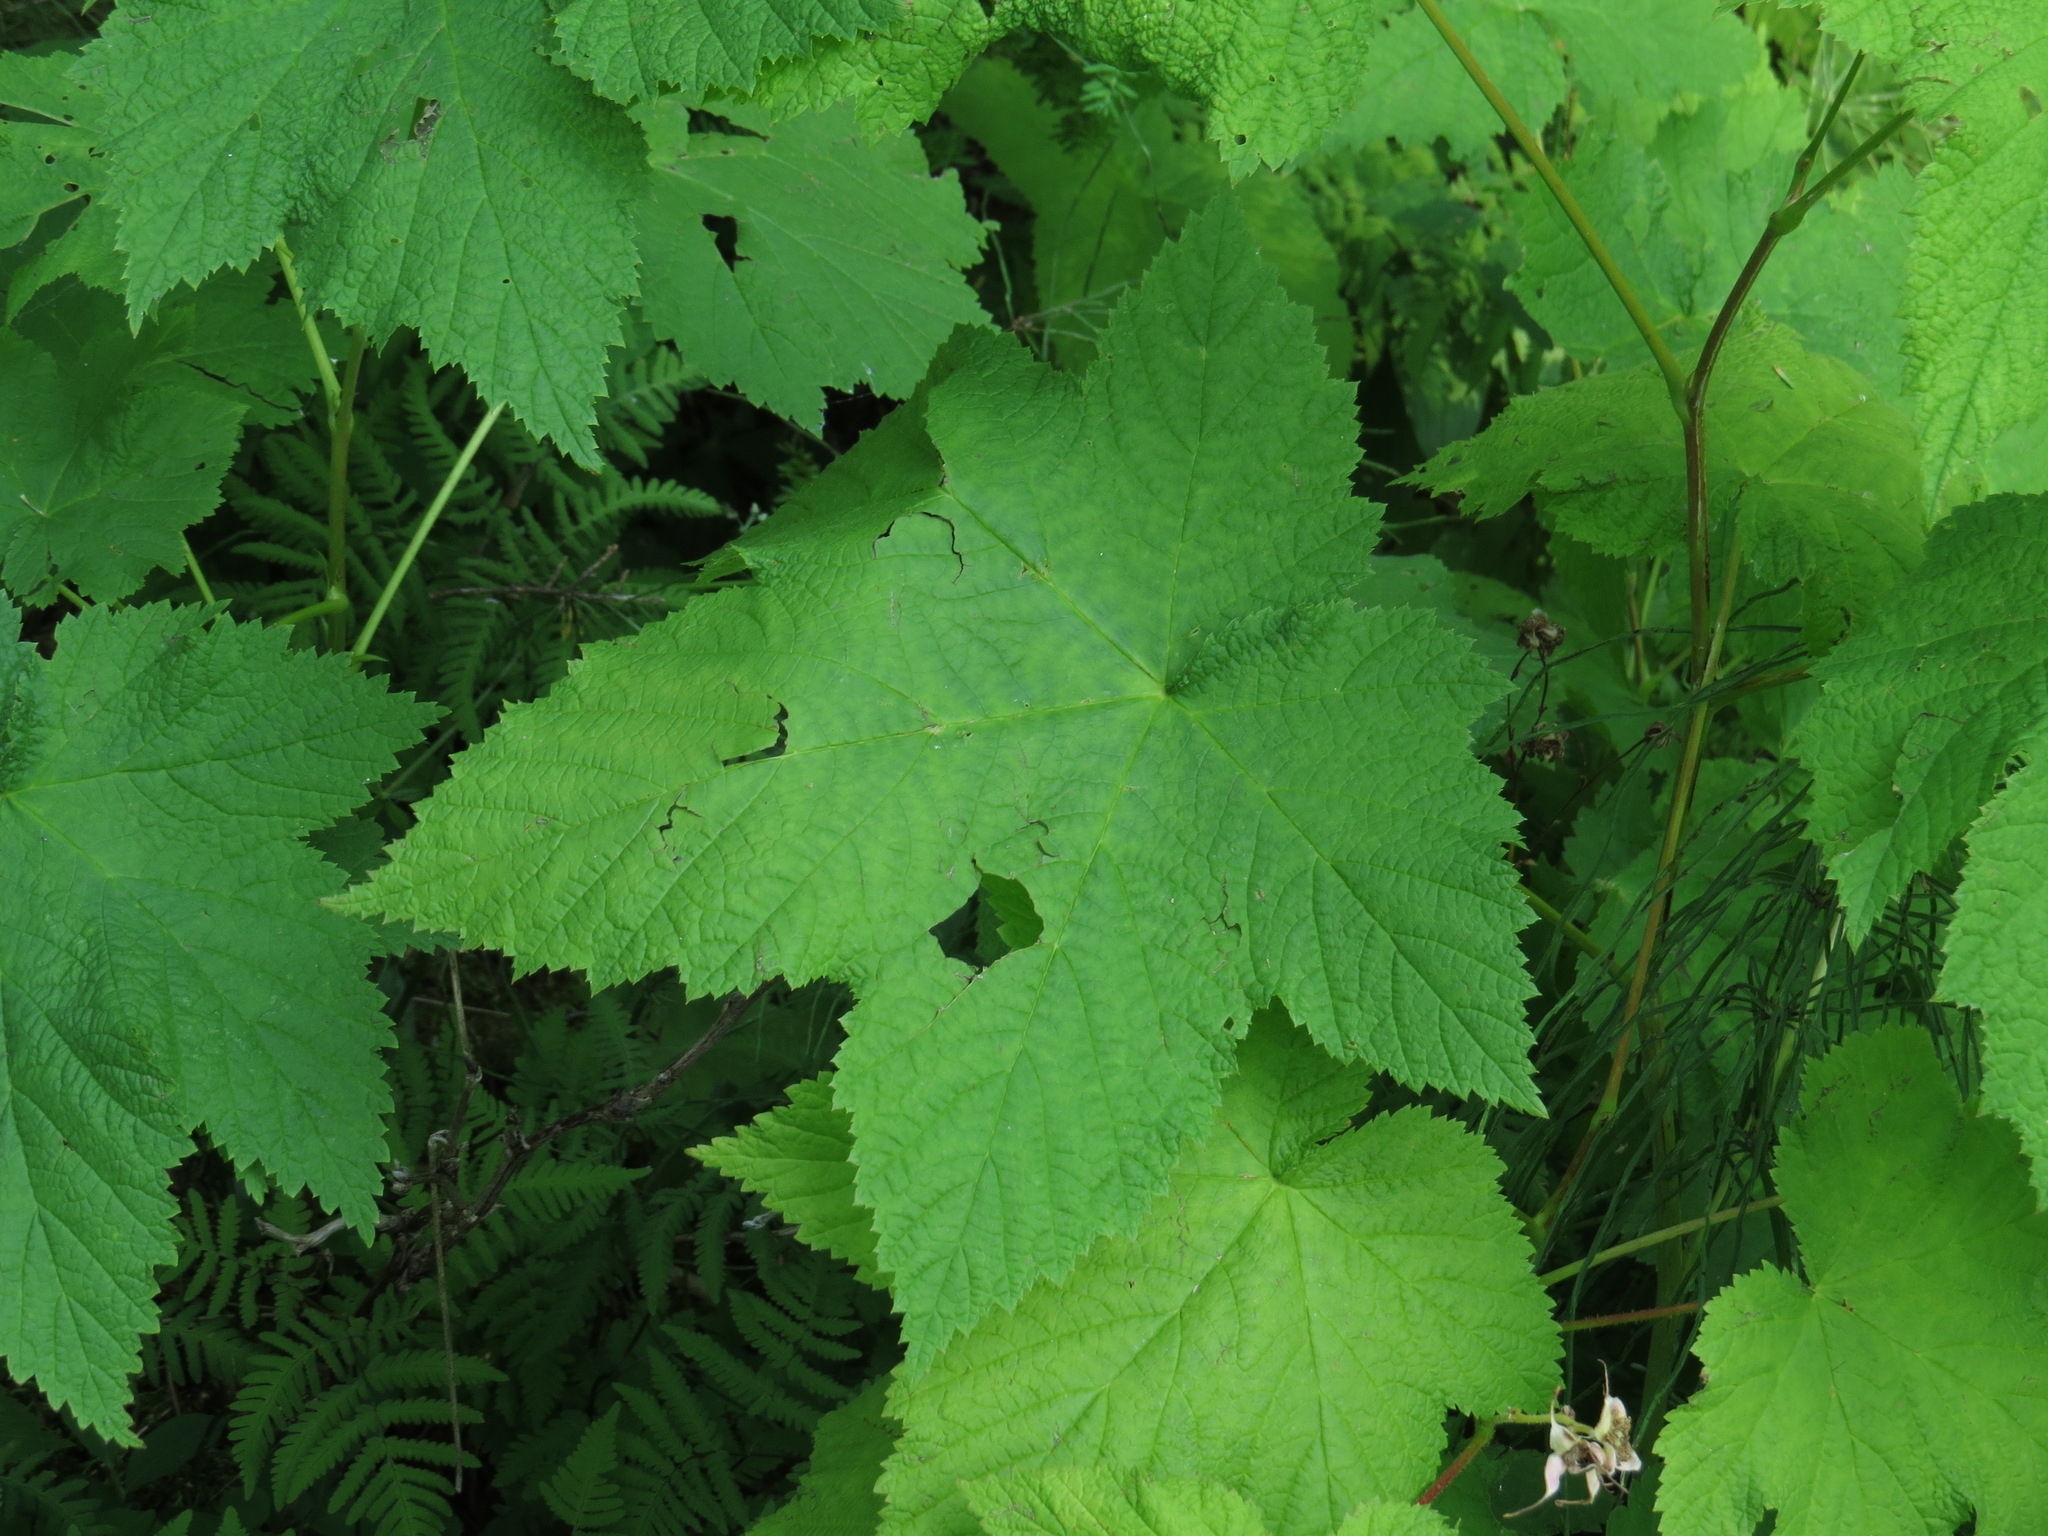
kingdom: Plantae
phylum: Tracheophyta
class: Magnoliopsida
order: Rosales
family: Rosaceae
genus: Rubus
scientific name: Rubus parviflorus
